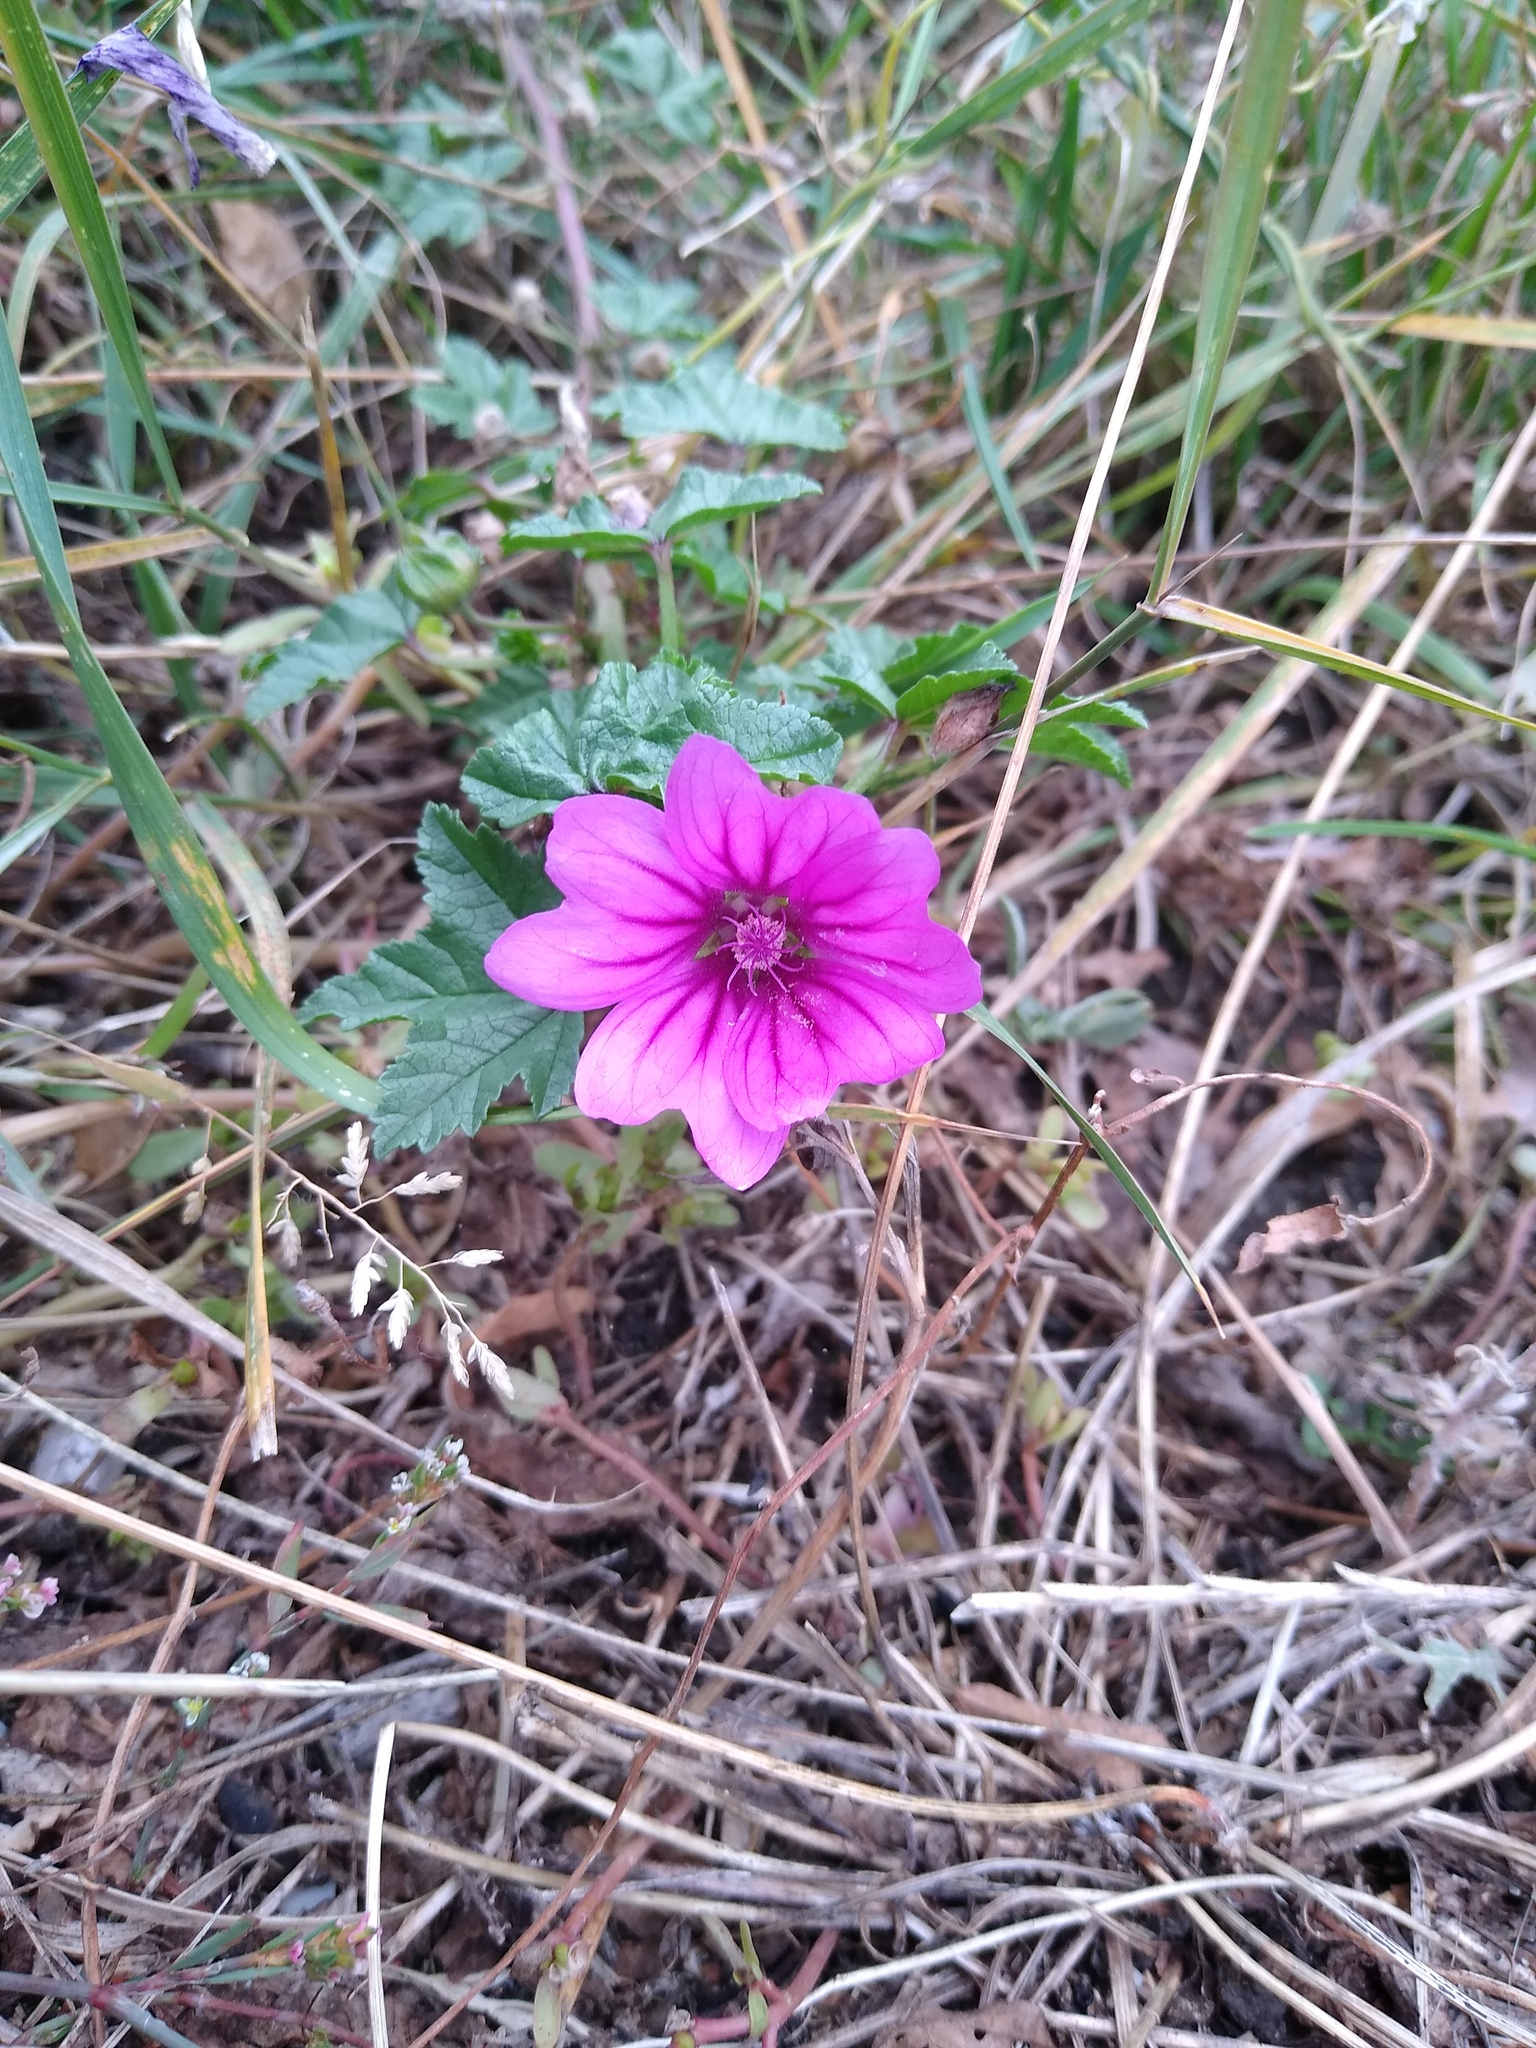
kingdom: Plantae
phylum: Tracheophyta
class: Magnoliopsida
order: Malvales
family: Malvaceae
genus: Malva
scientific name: Malva sylvestris
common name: Common mallow
